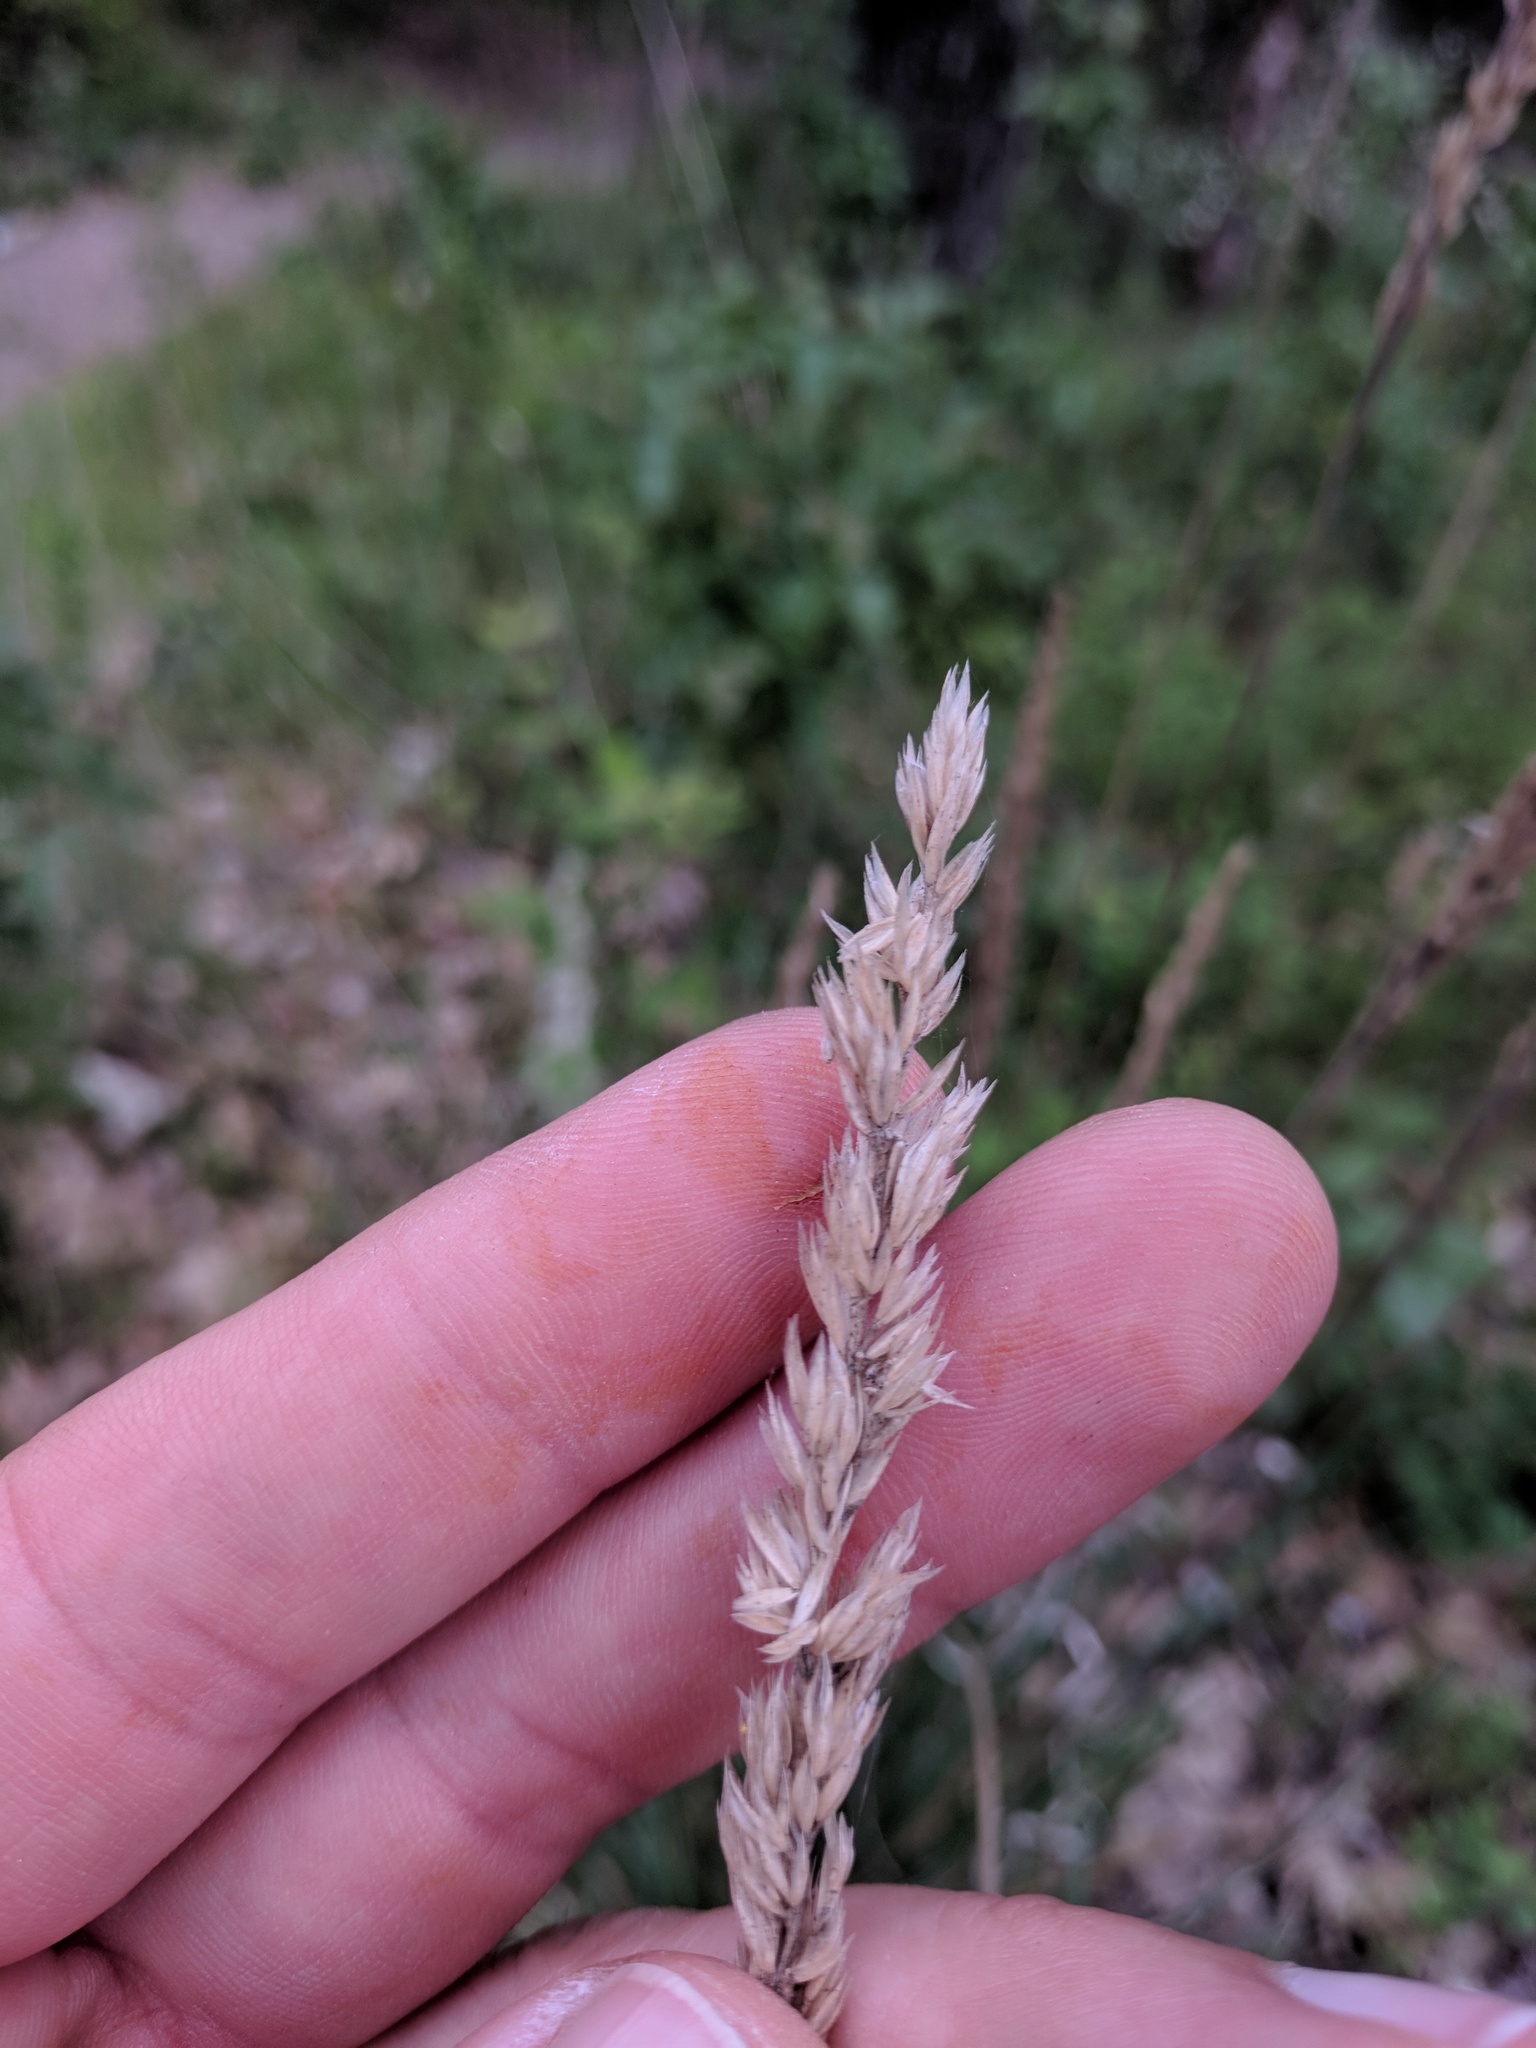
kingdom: Plantae
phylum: Tracheophyta
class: Liliopsida
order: Poales
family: Poaceae
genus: Koeleria
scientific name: Koeleria macrantha
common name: Crested hair-grass
